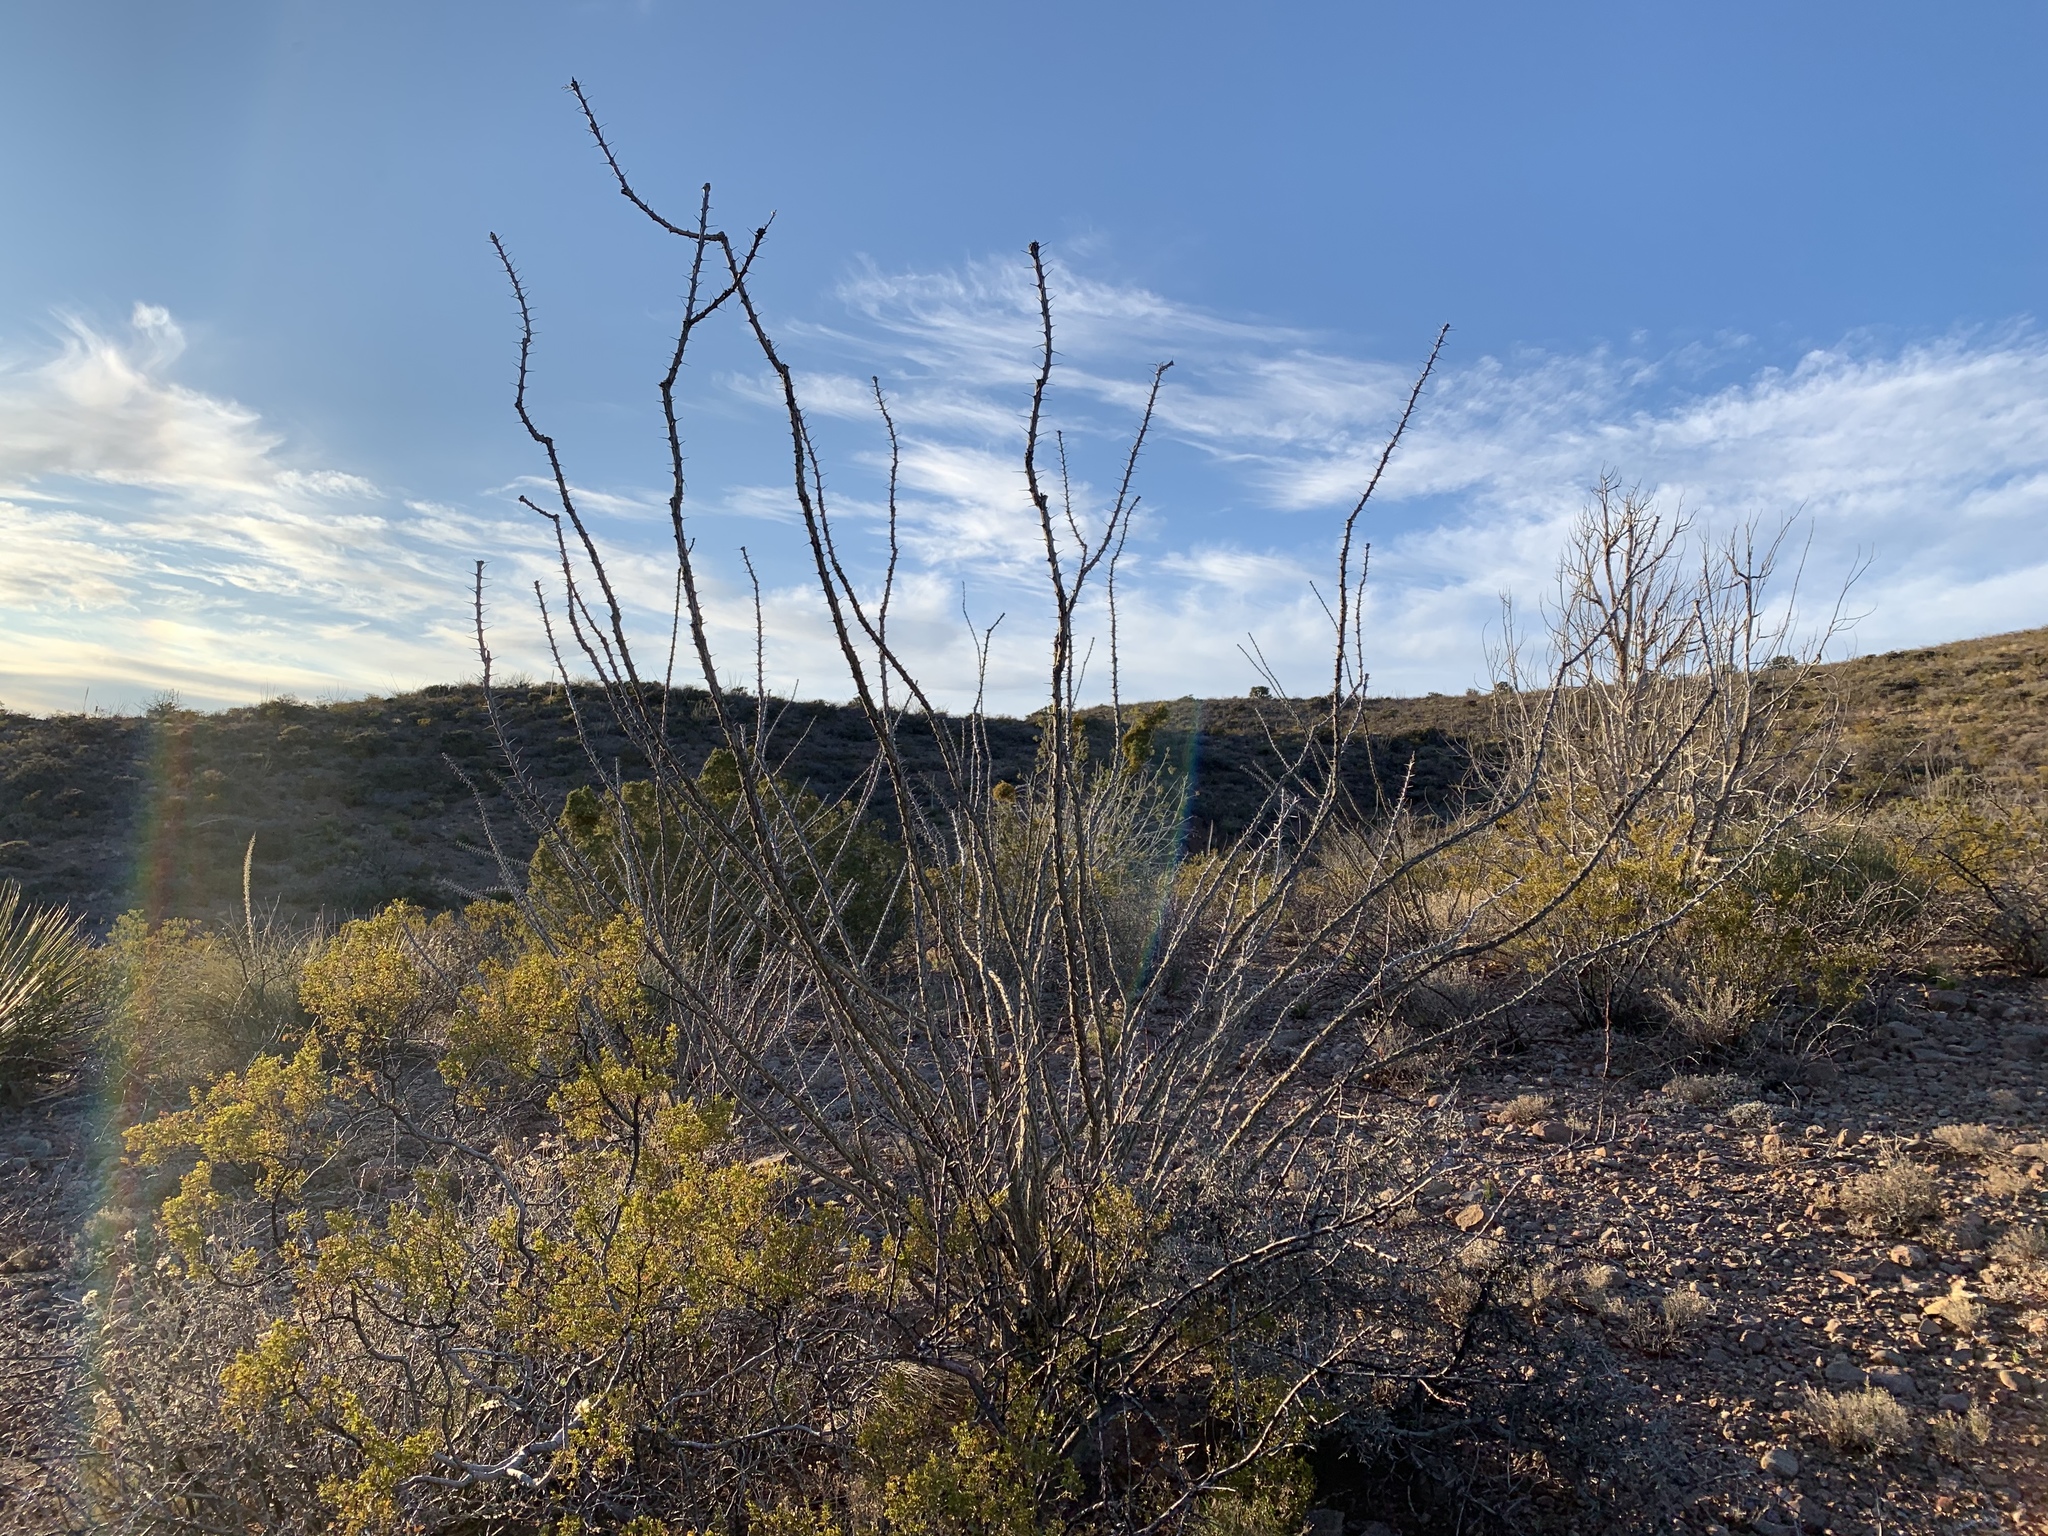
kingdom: Plantae
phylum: Tracheophyta
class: Magnoliopsida
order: Ericales
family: Fouquieriaceae
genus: Fouquieria
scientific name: Fouquieria splendens
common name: Vine-cactus
